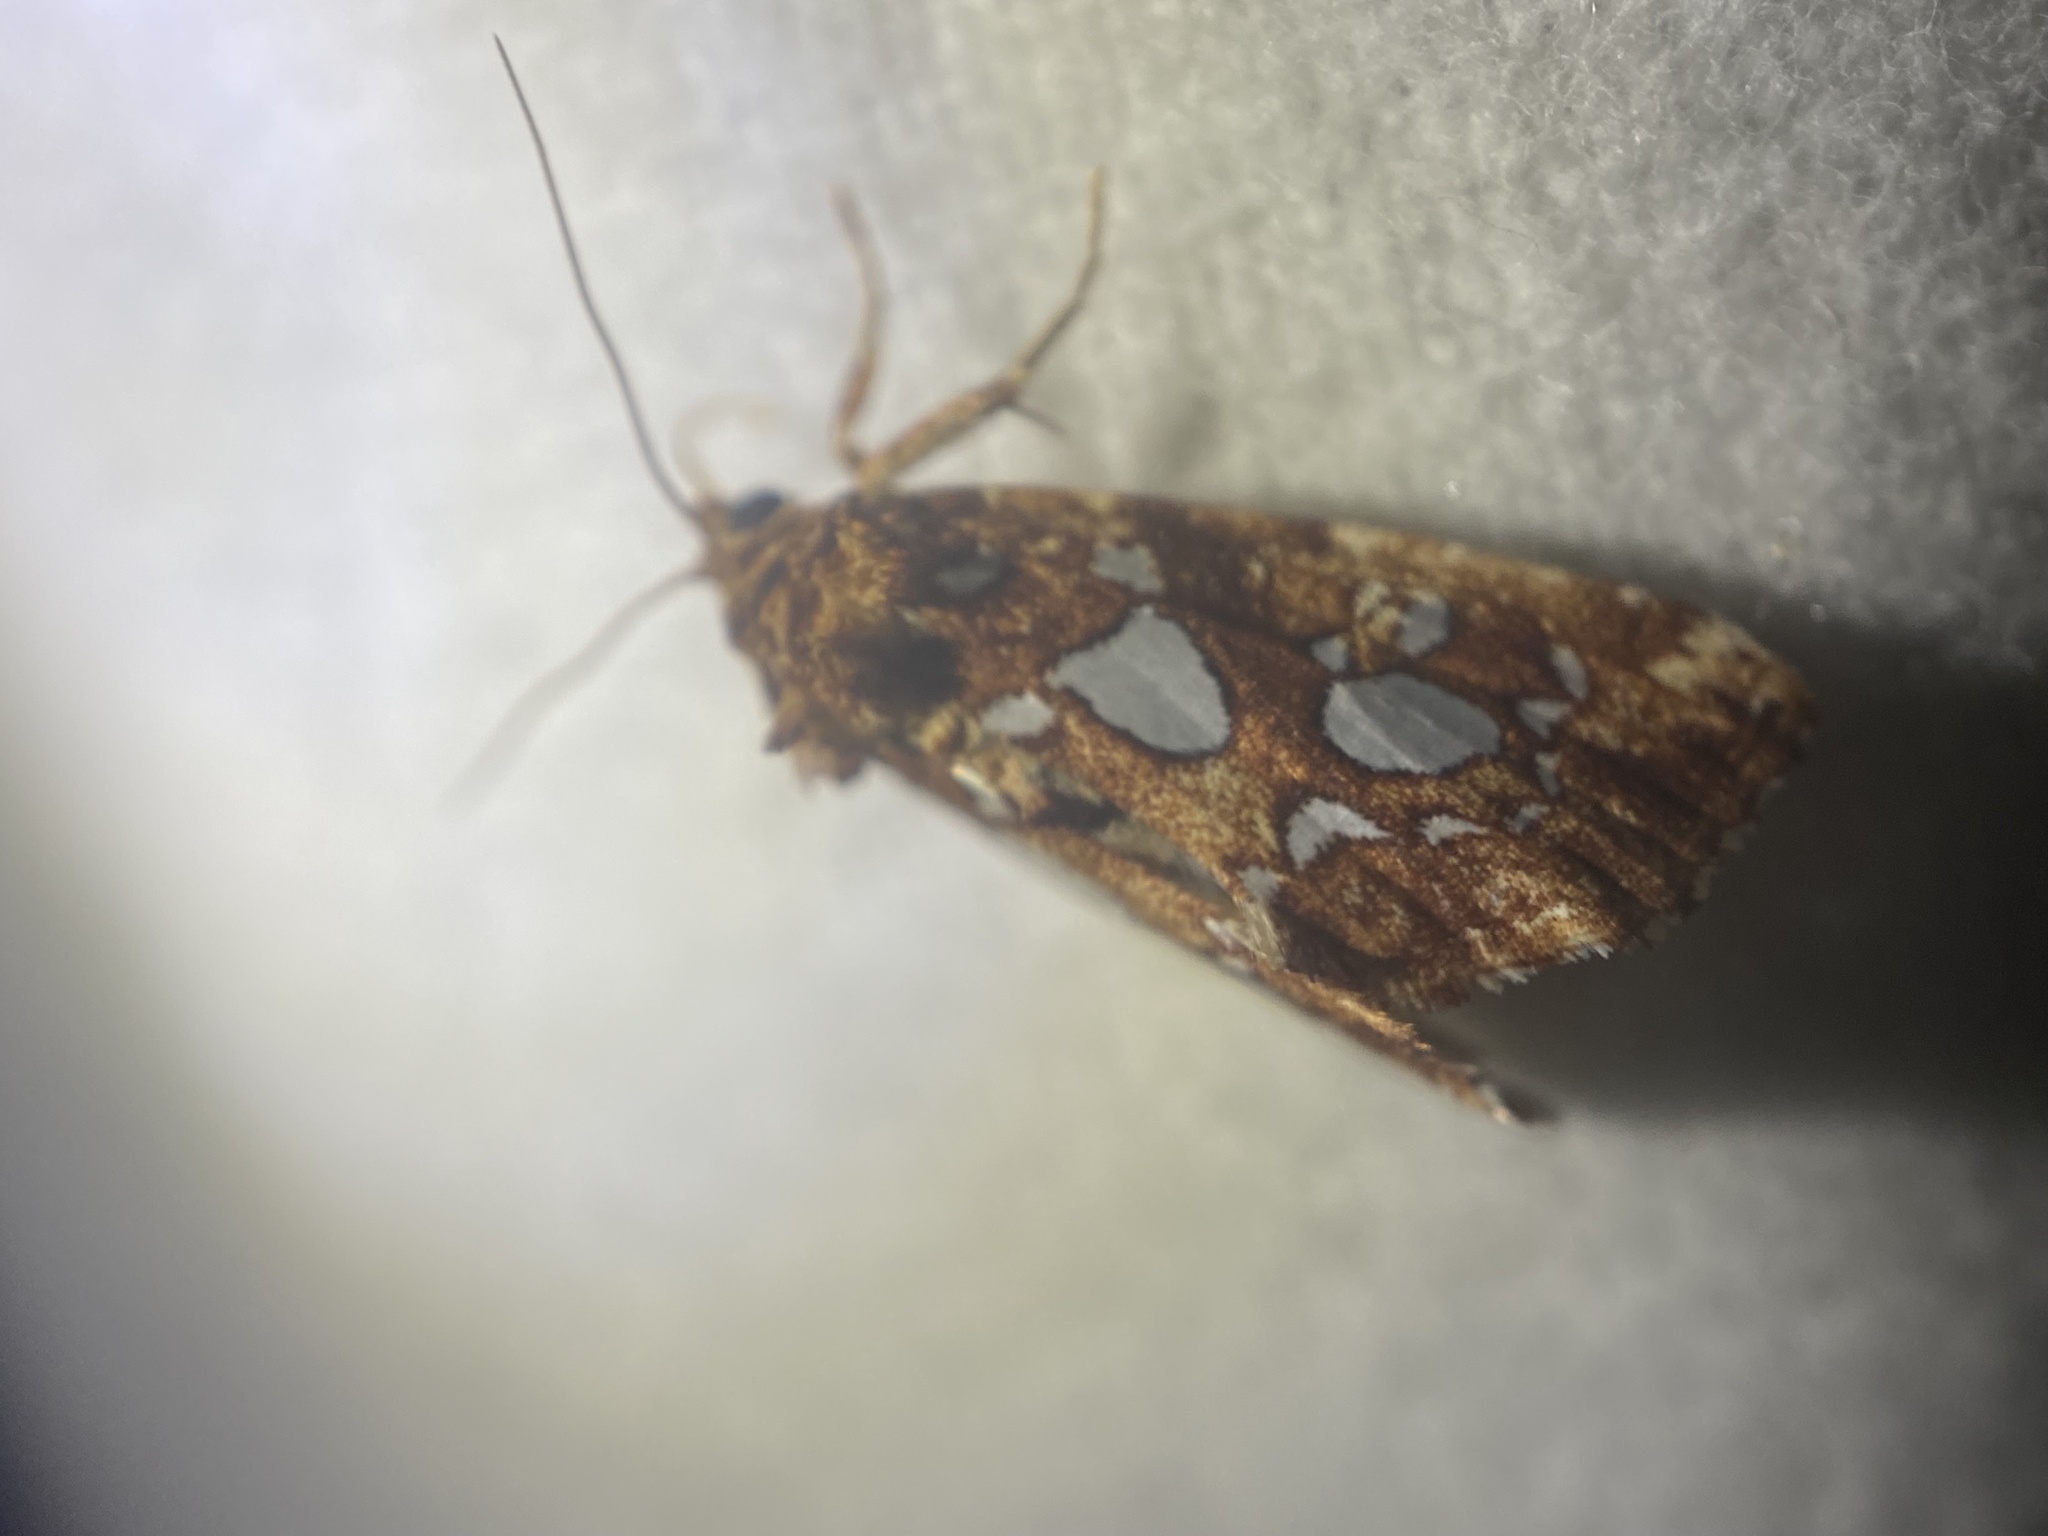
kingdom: Animalia
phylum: Arthropoda
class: Insecta
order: Lepidoptera
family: Noctuidae
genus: Callopistria
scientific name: Callopistria cordata
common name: Silver-spotted fern moth
